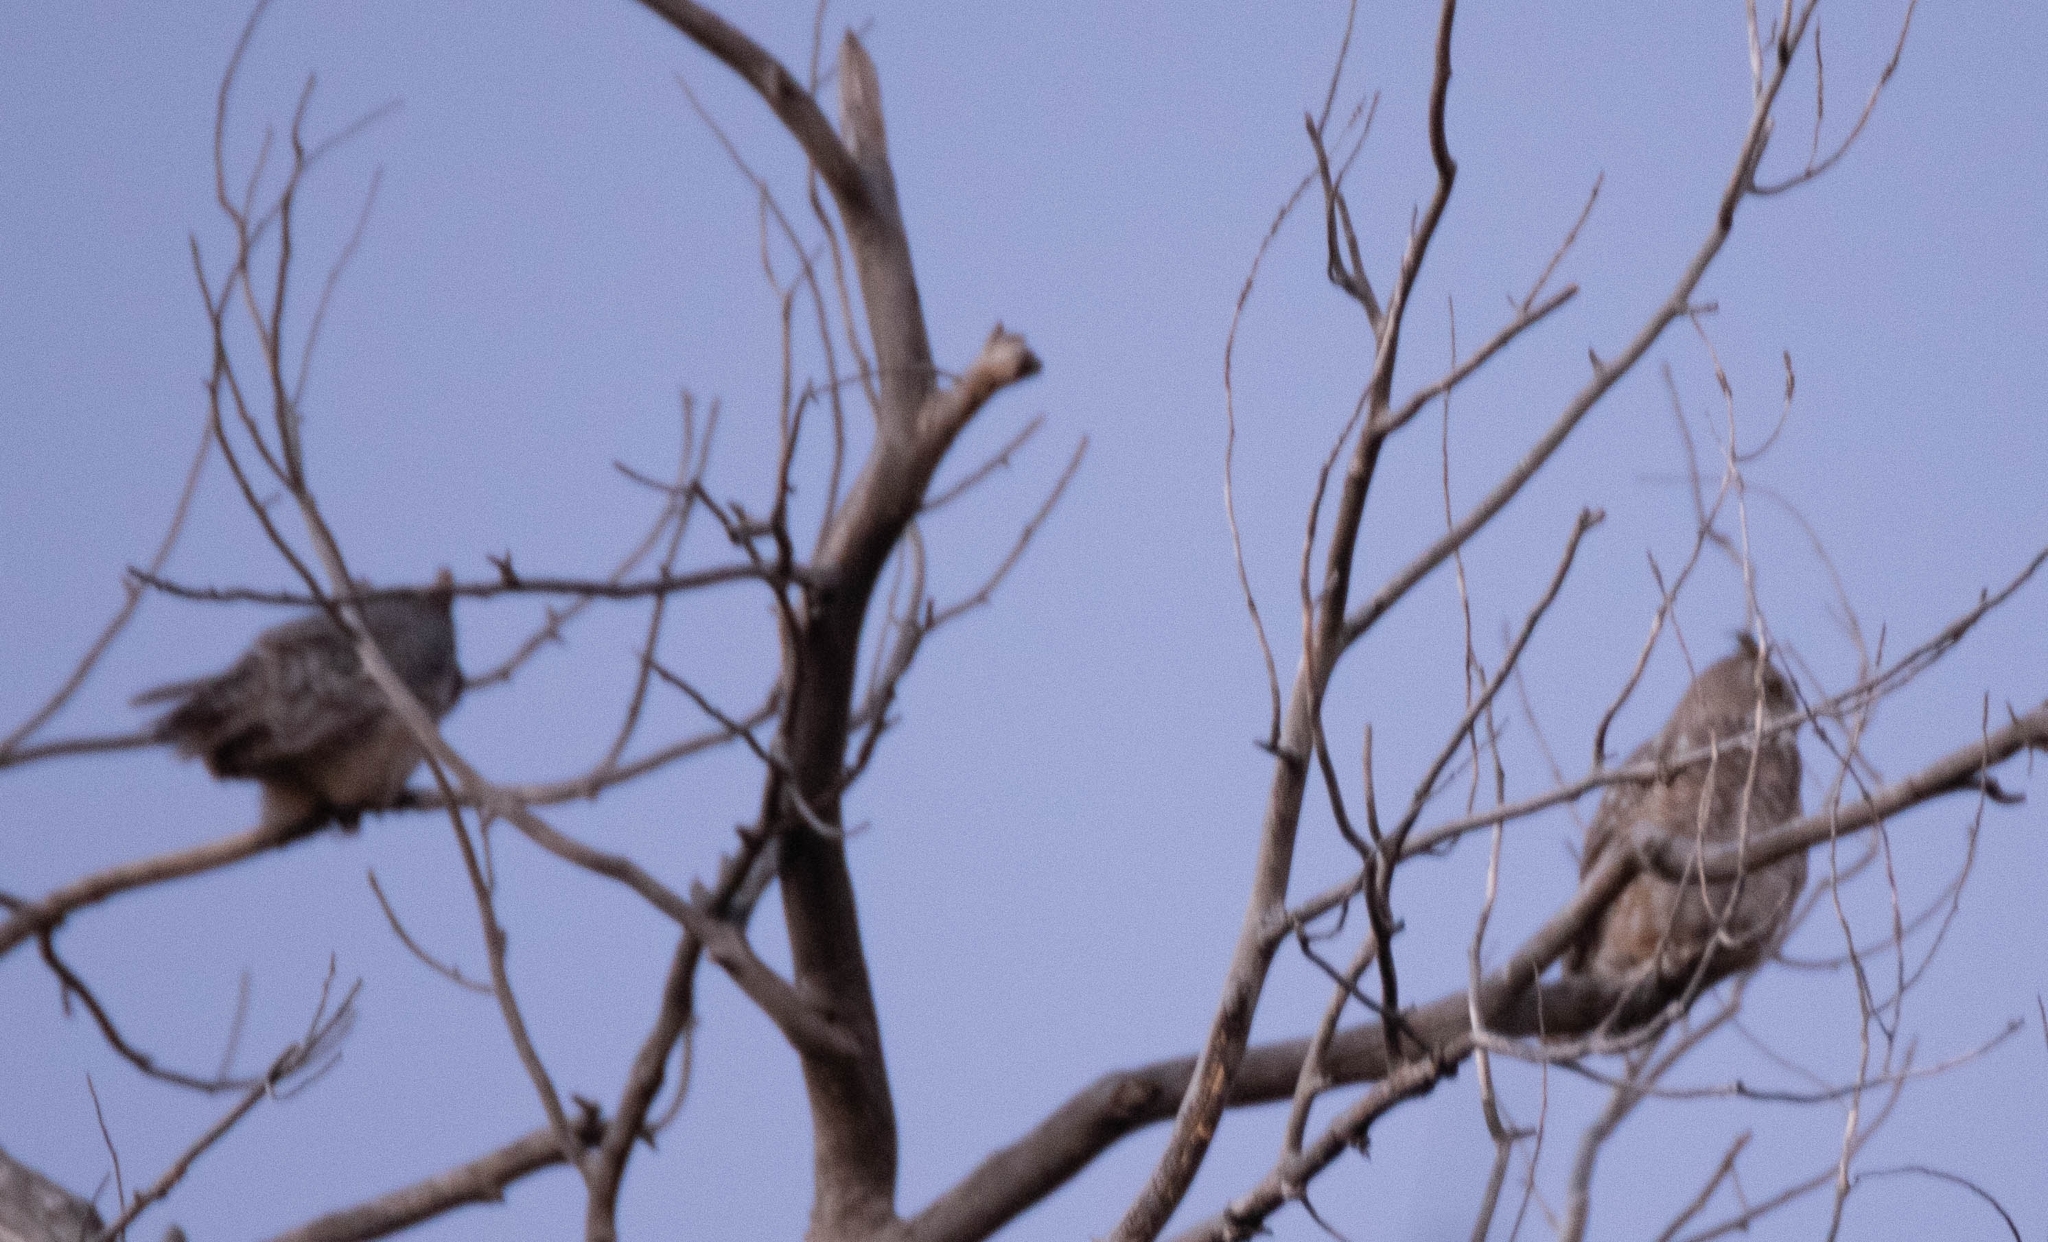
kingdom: Animalia
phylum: Chordata
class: Aves
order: Strigiformes
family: Strigidae
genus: Bubo
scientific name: Bubo virginianus
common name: Great horned owl
